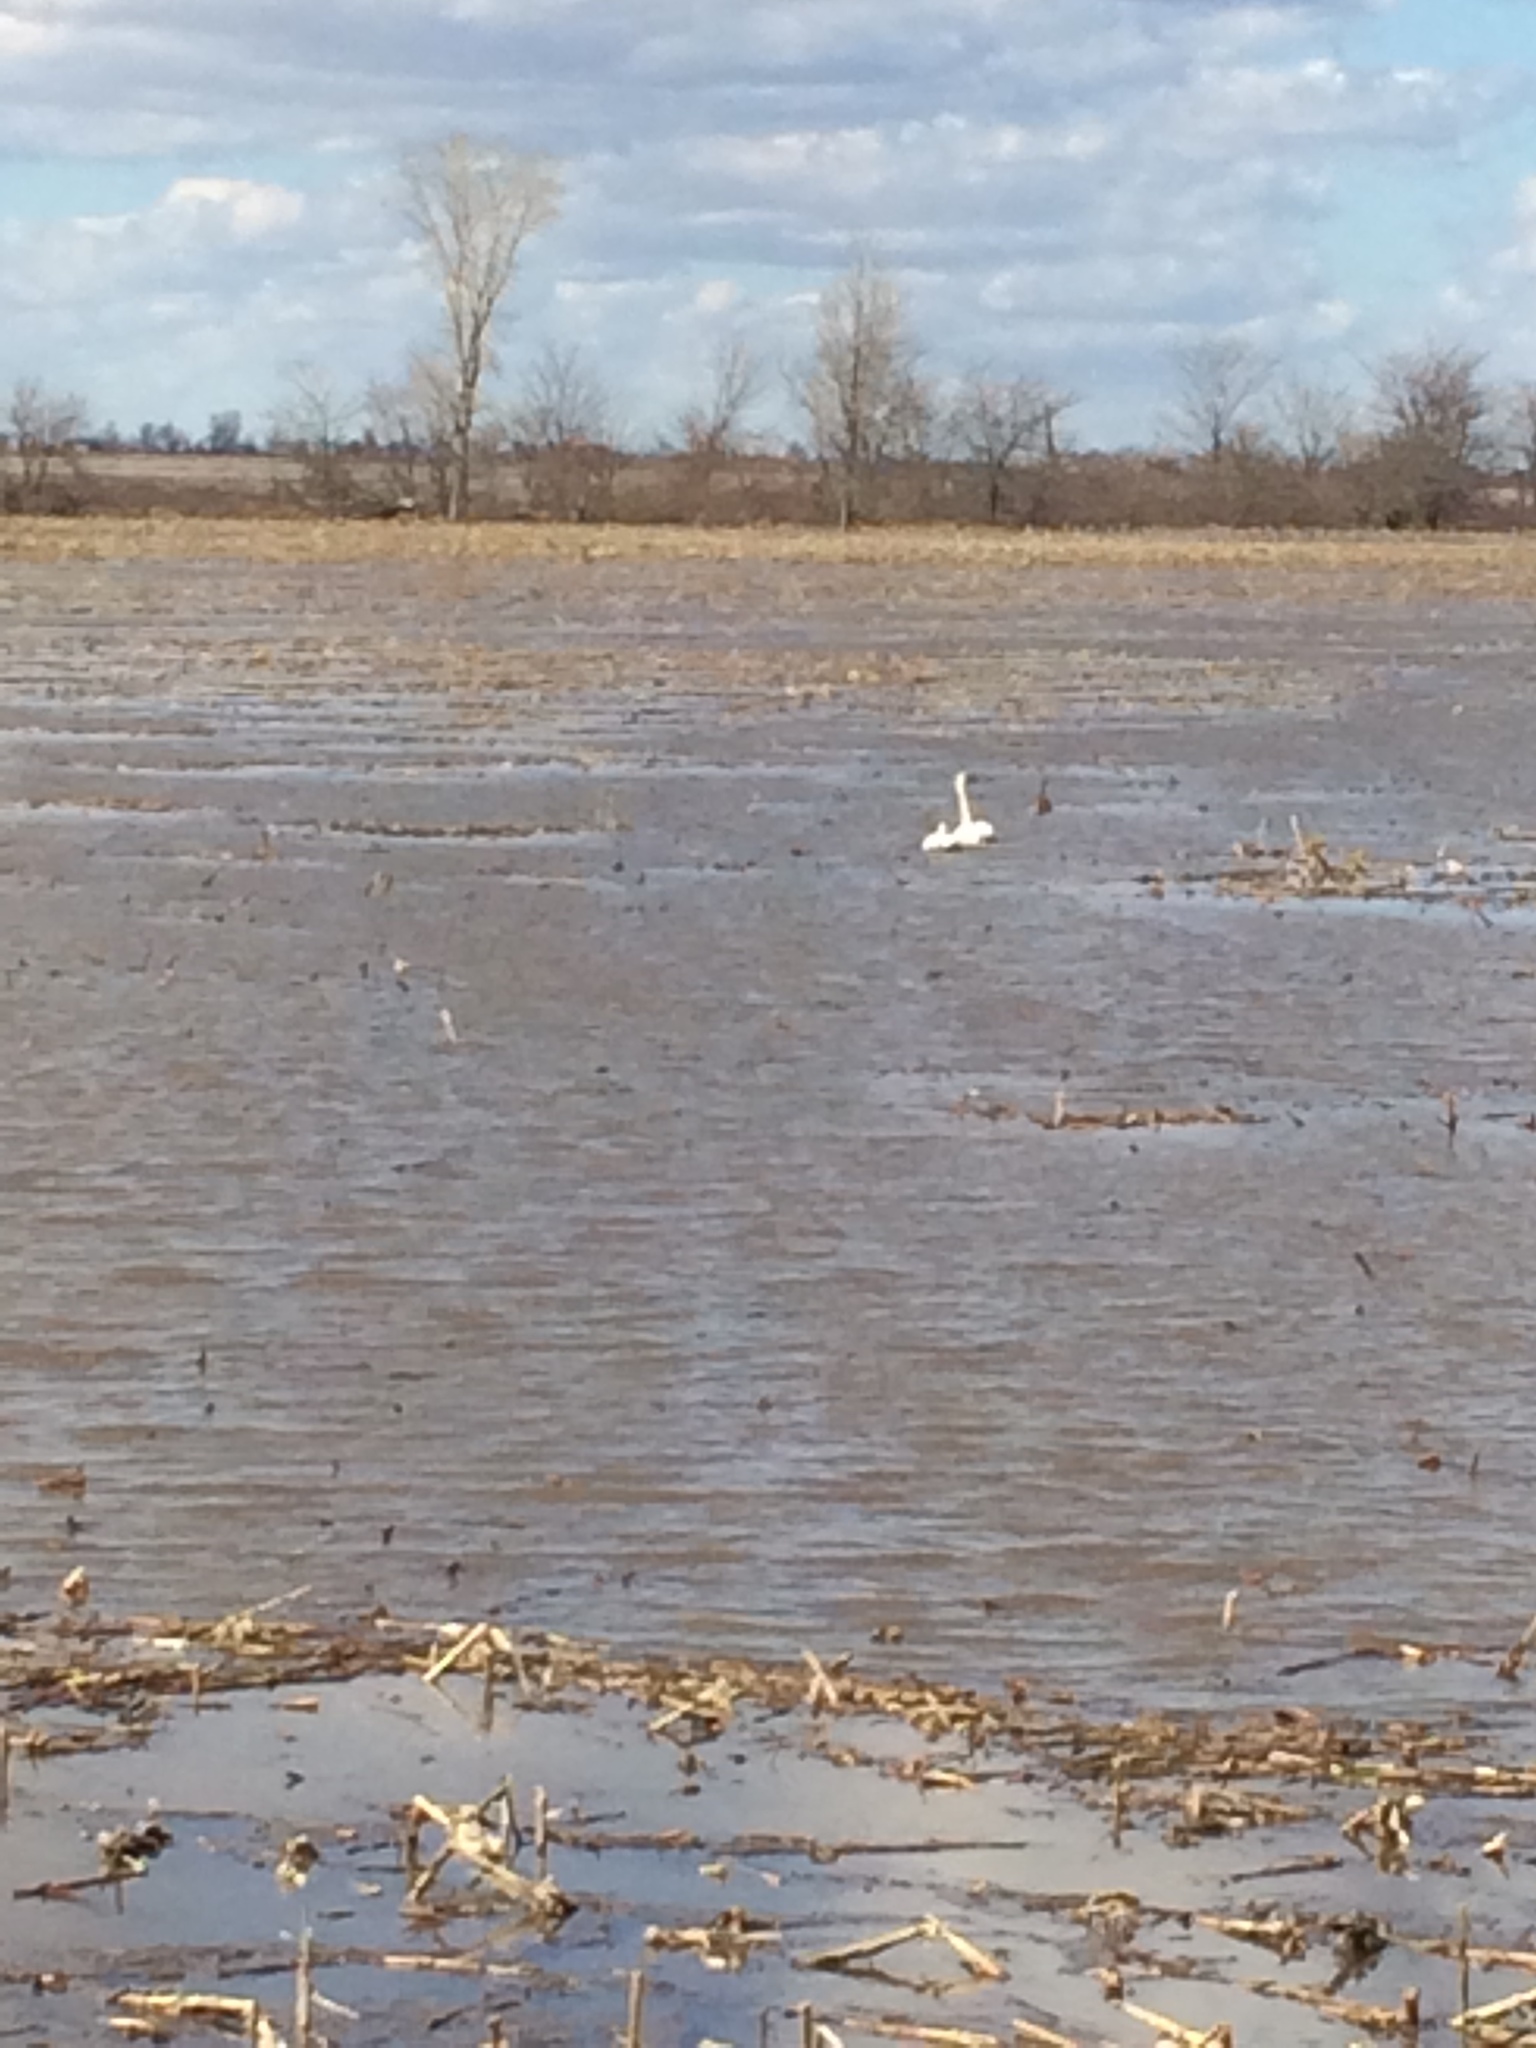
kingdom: Animalia
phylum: Chordata
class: Aves
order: Anseriformes
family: Anatidae
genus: Cygnus
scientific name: Cygnus buccinator
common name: Trumpeter swan
